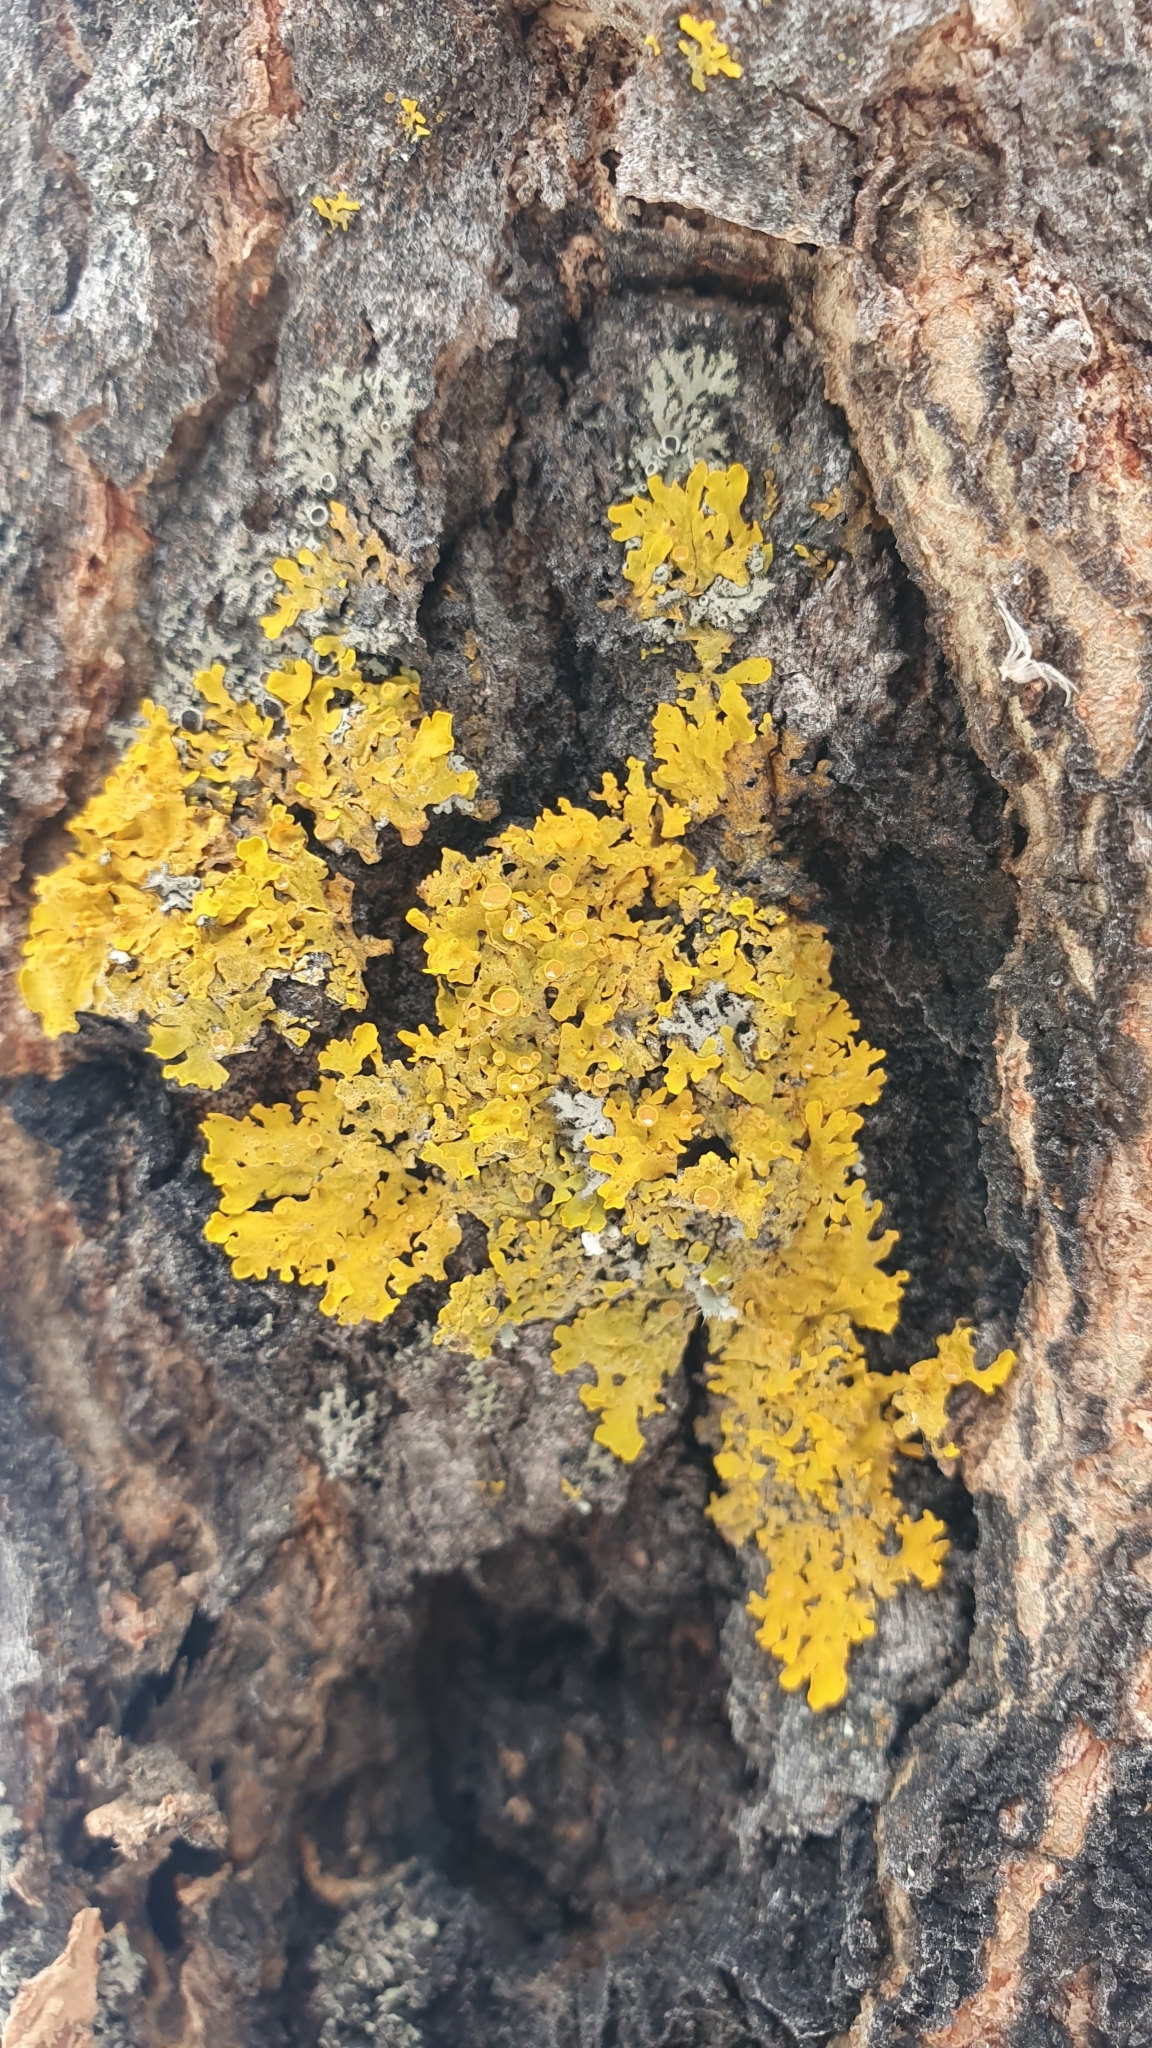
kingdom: Fungi
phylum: Ascomycota
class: Lecanoromycetes
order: Teloschistales
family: Teloschistaceae
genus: Xanthoria
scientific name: Xanthoria parietina
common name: Common orange lichen
